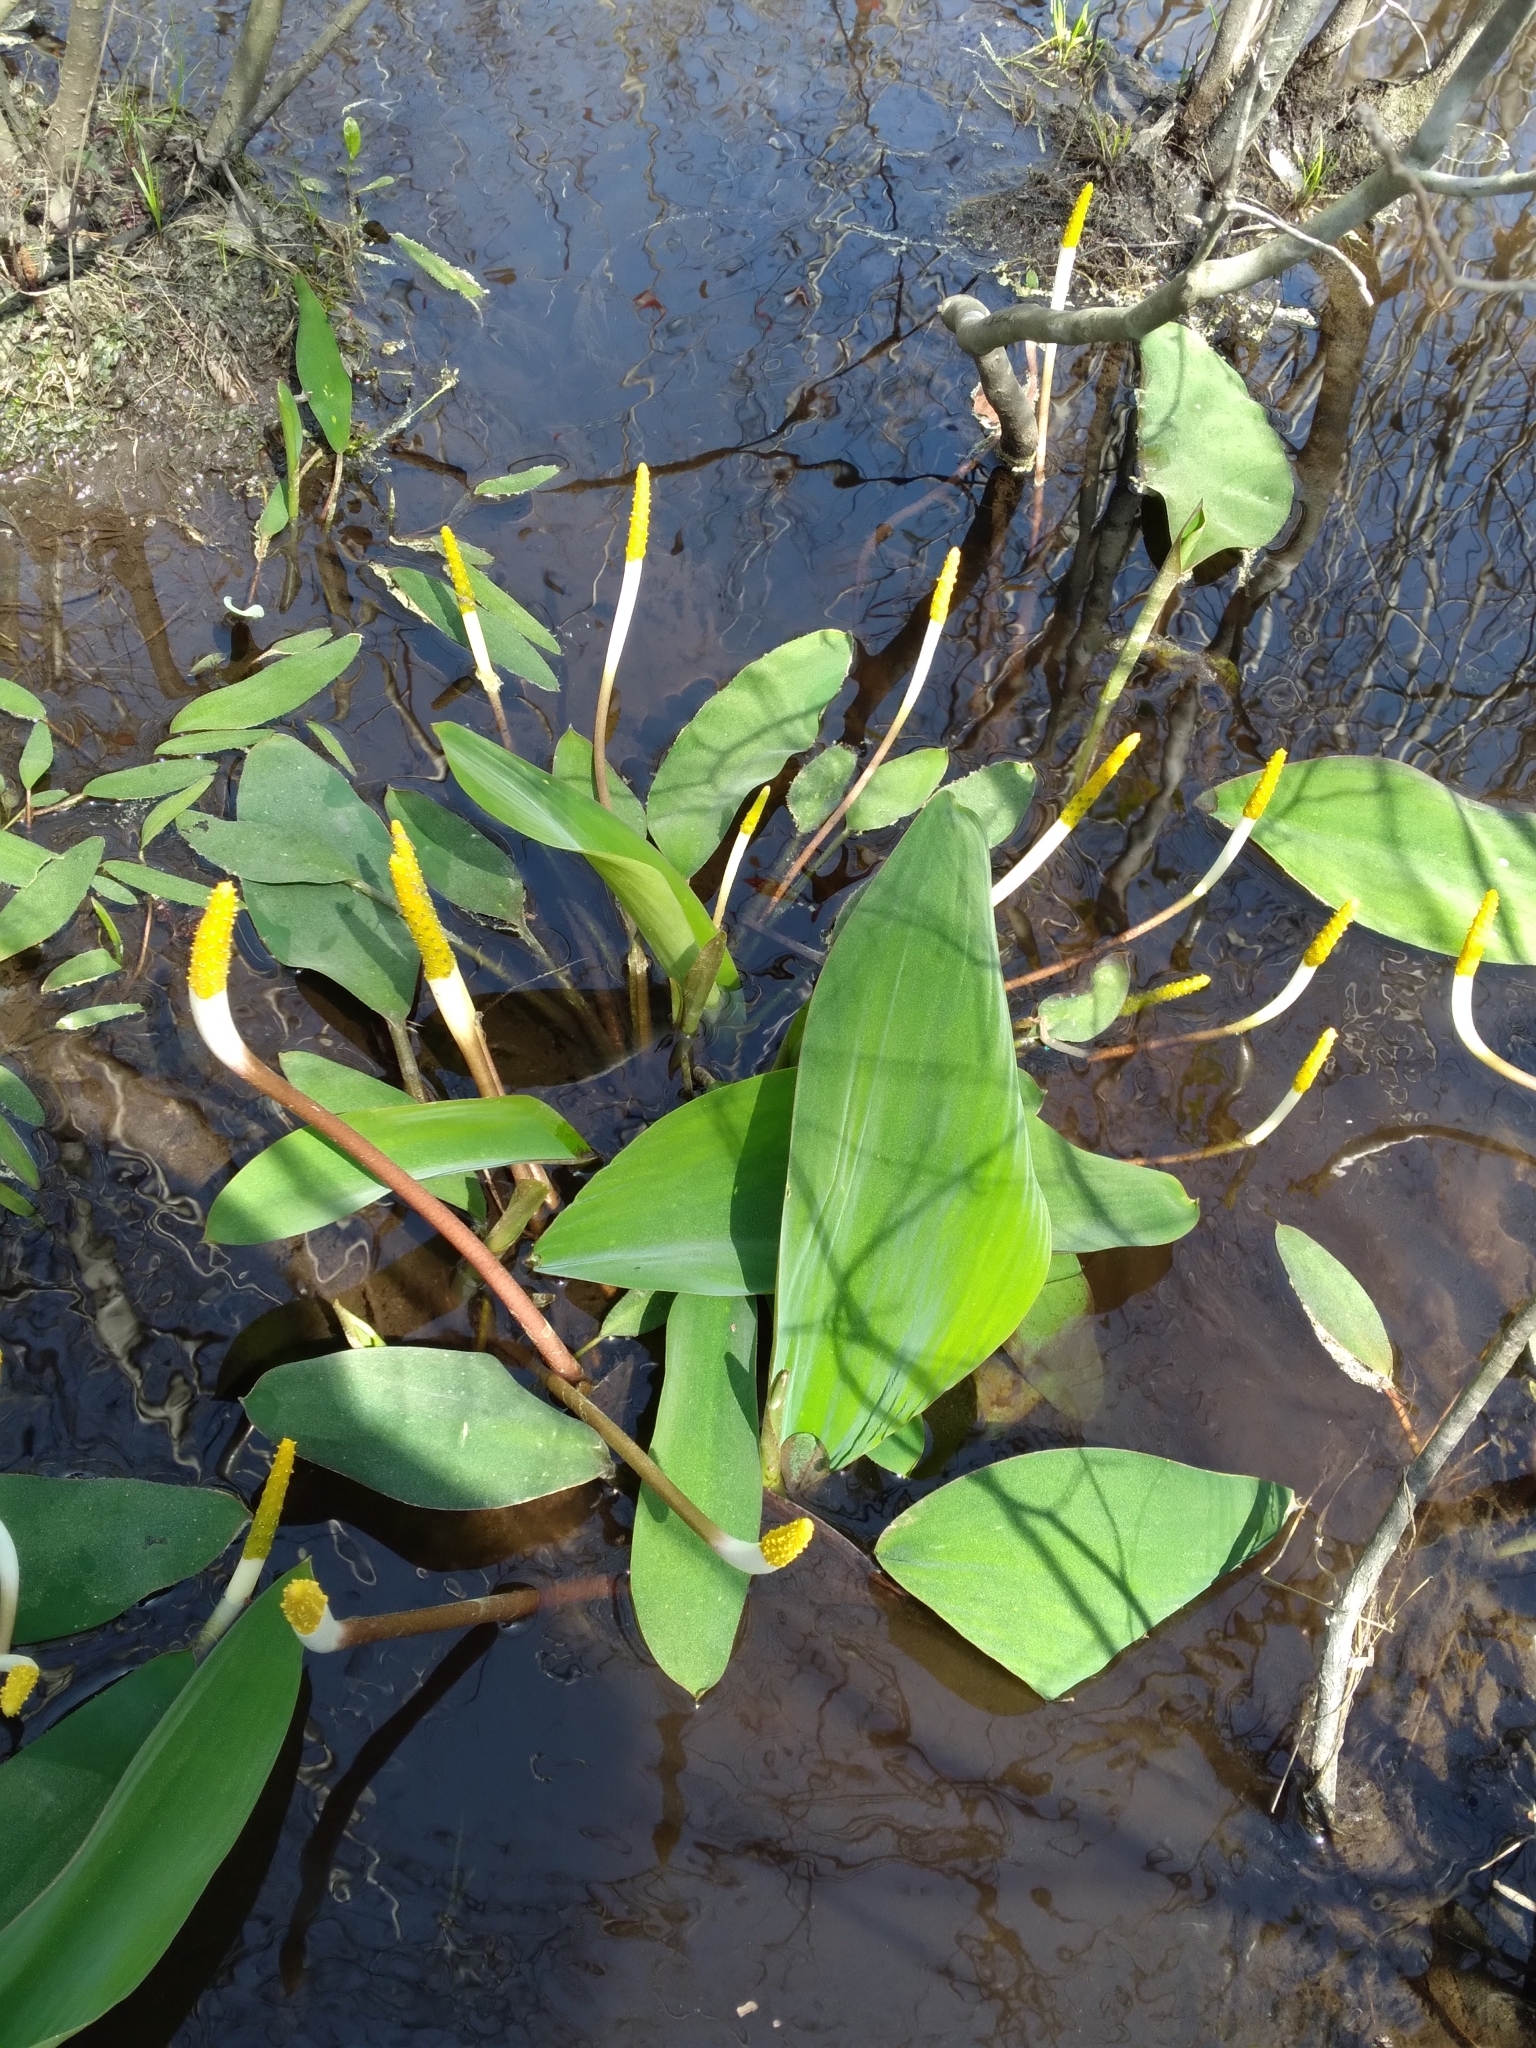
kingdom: Plantae
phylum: Tracheophyta
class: Liliopsida
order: Alismatales
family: Araceae
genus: Orontium
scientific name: Orontium aquaticum
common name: Golden-club
